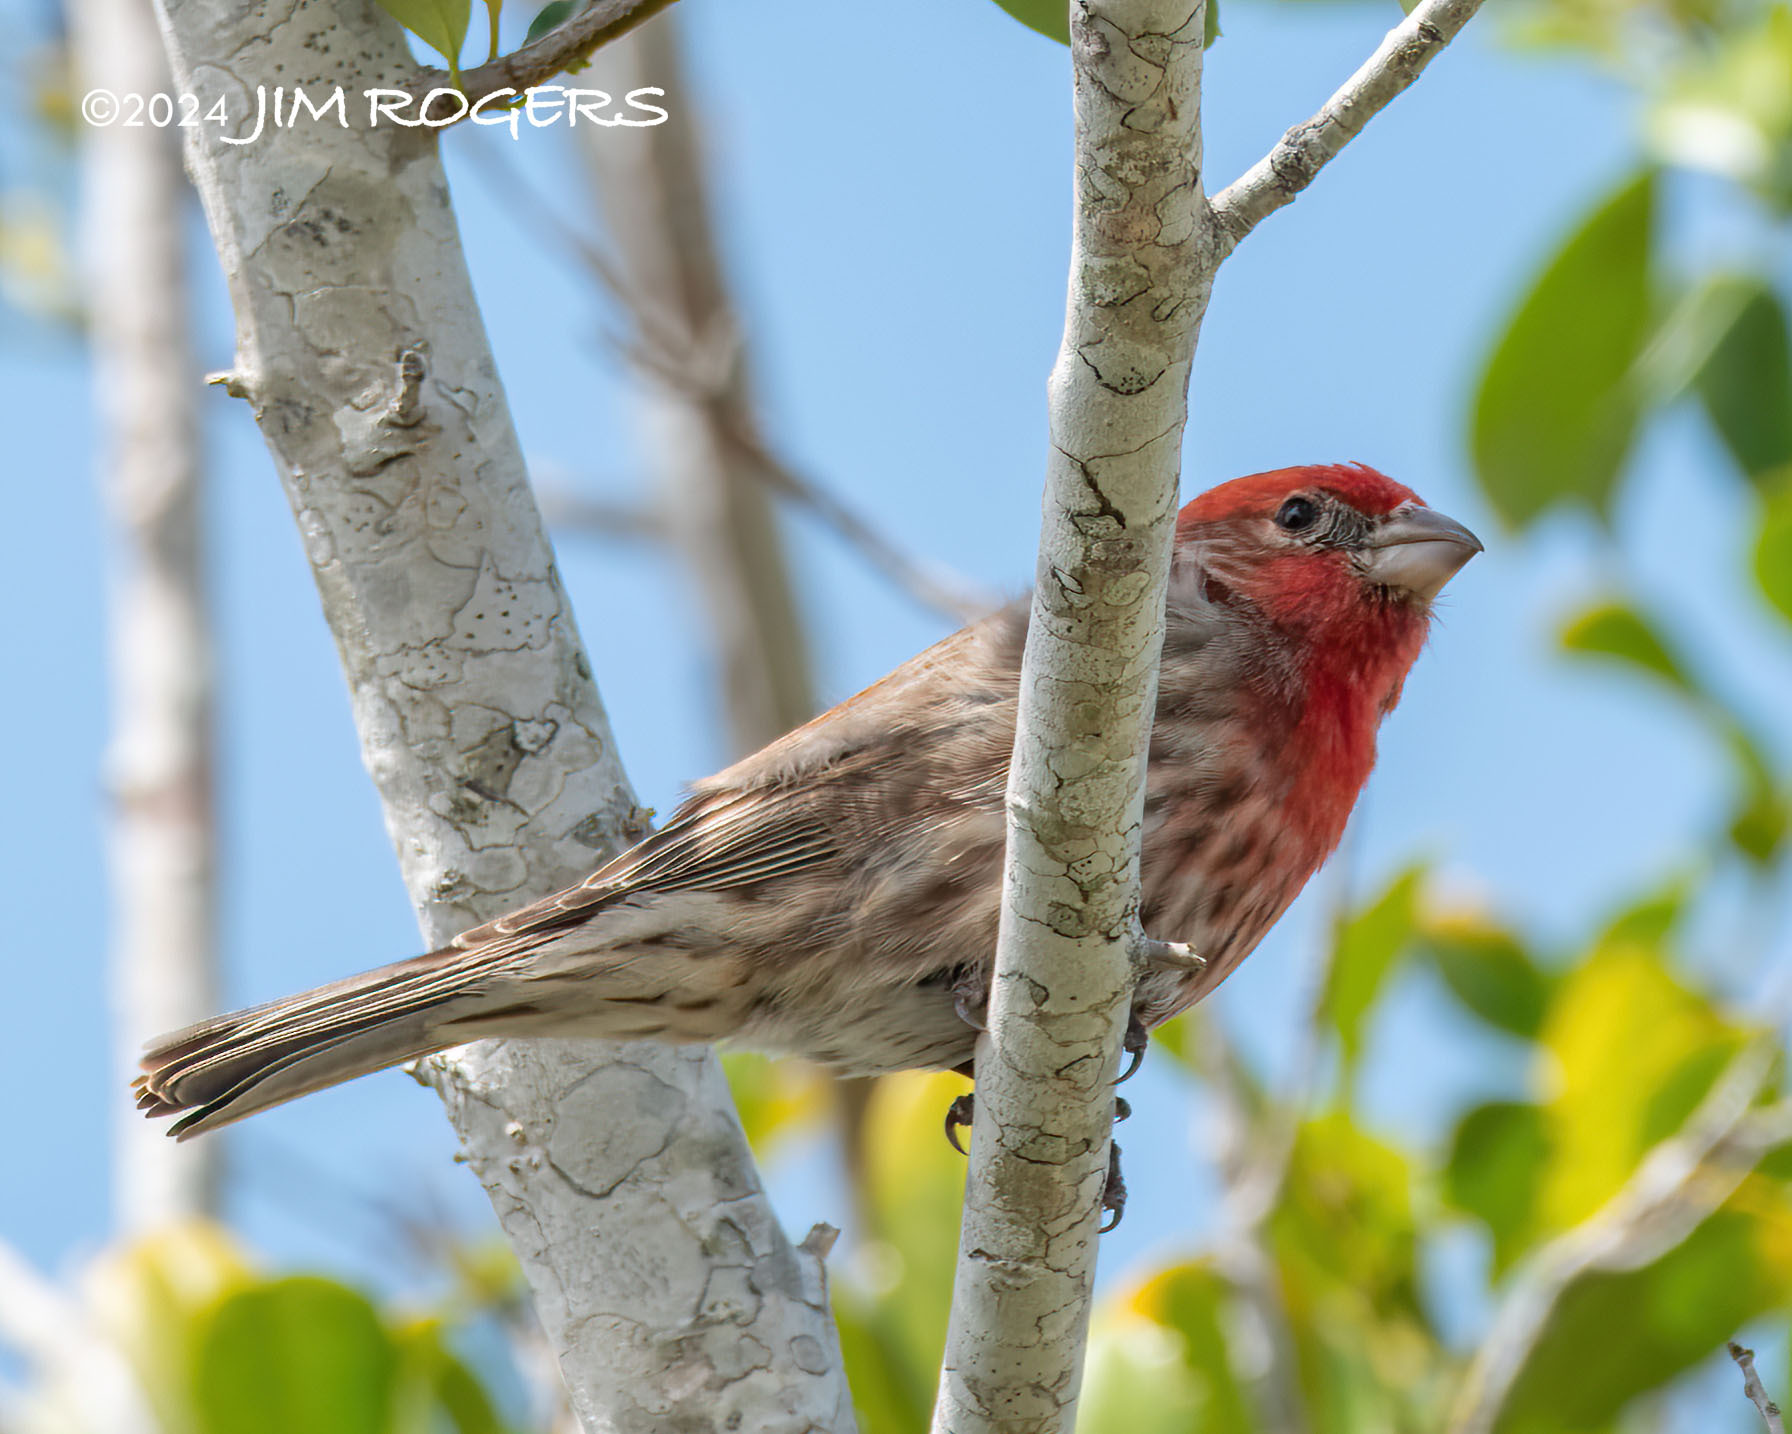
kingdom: Animalia
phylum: Chordata
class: Aves
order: Passeriformes
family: Fringillidae
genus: Haemorhous
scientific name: Haemorhous mexicanus
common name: House finch
